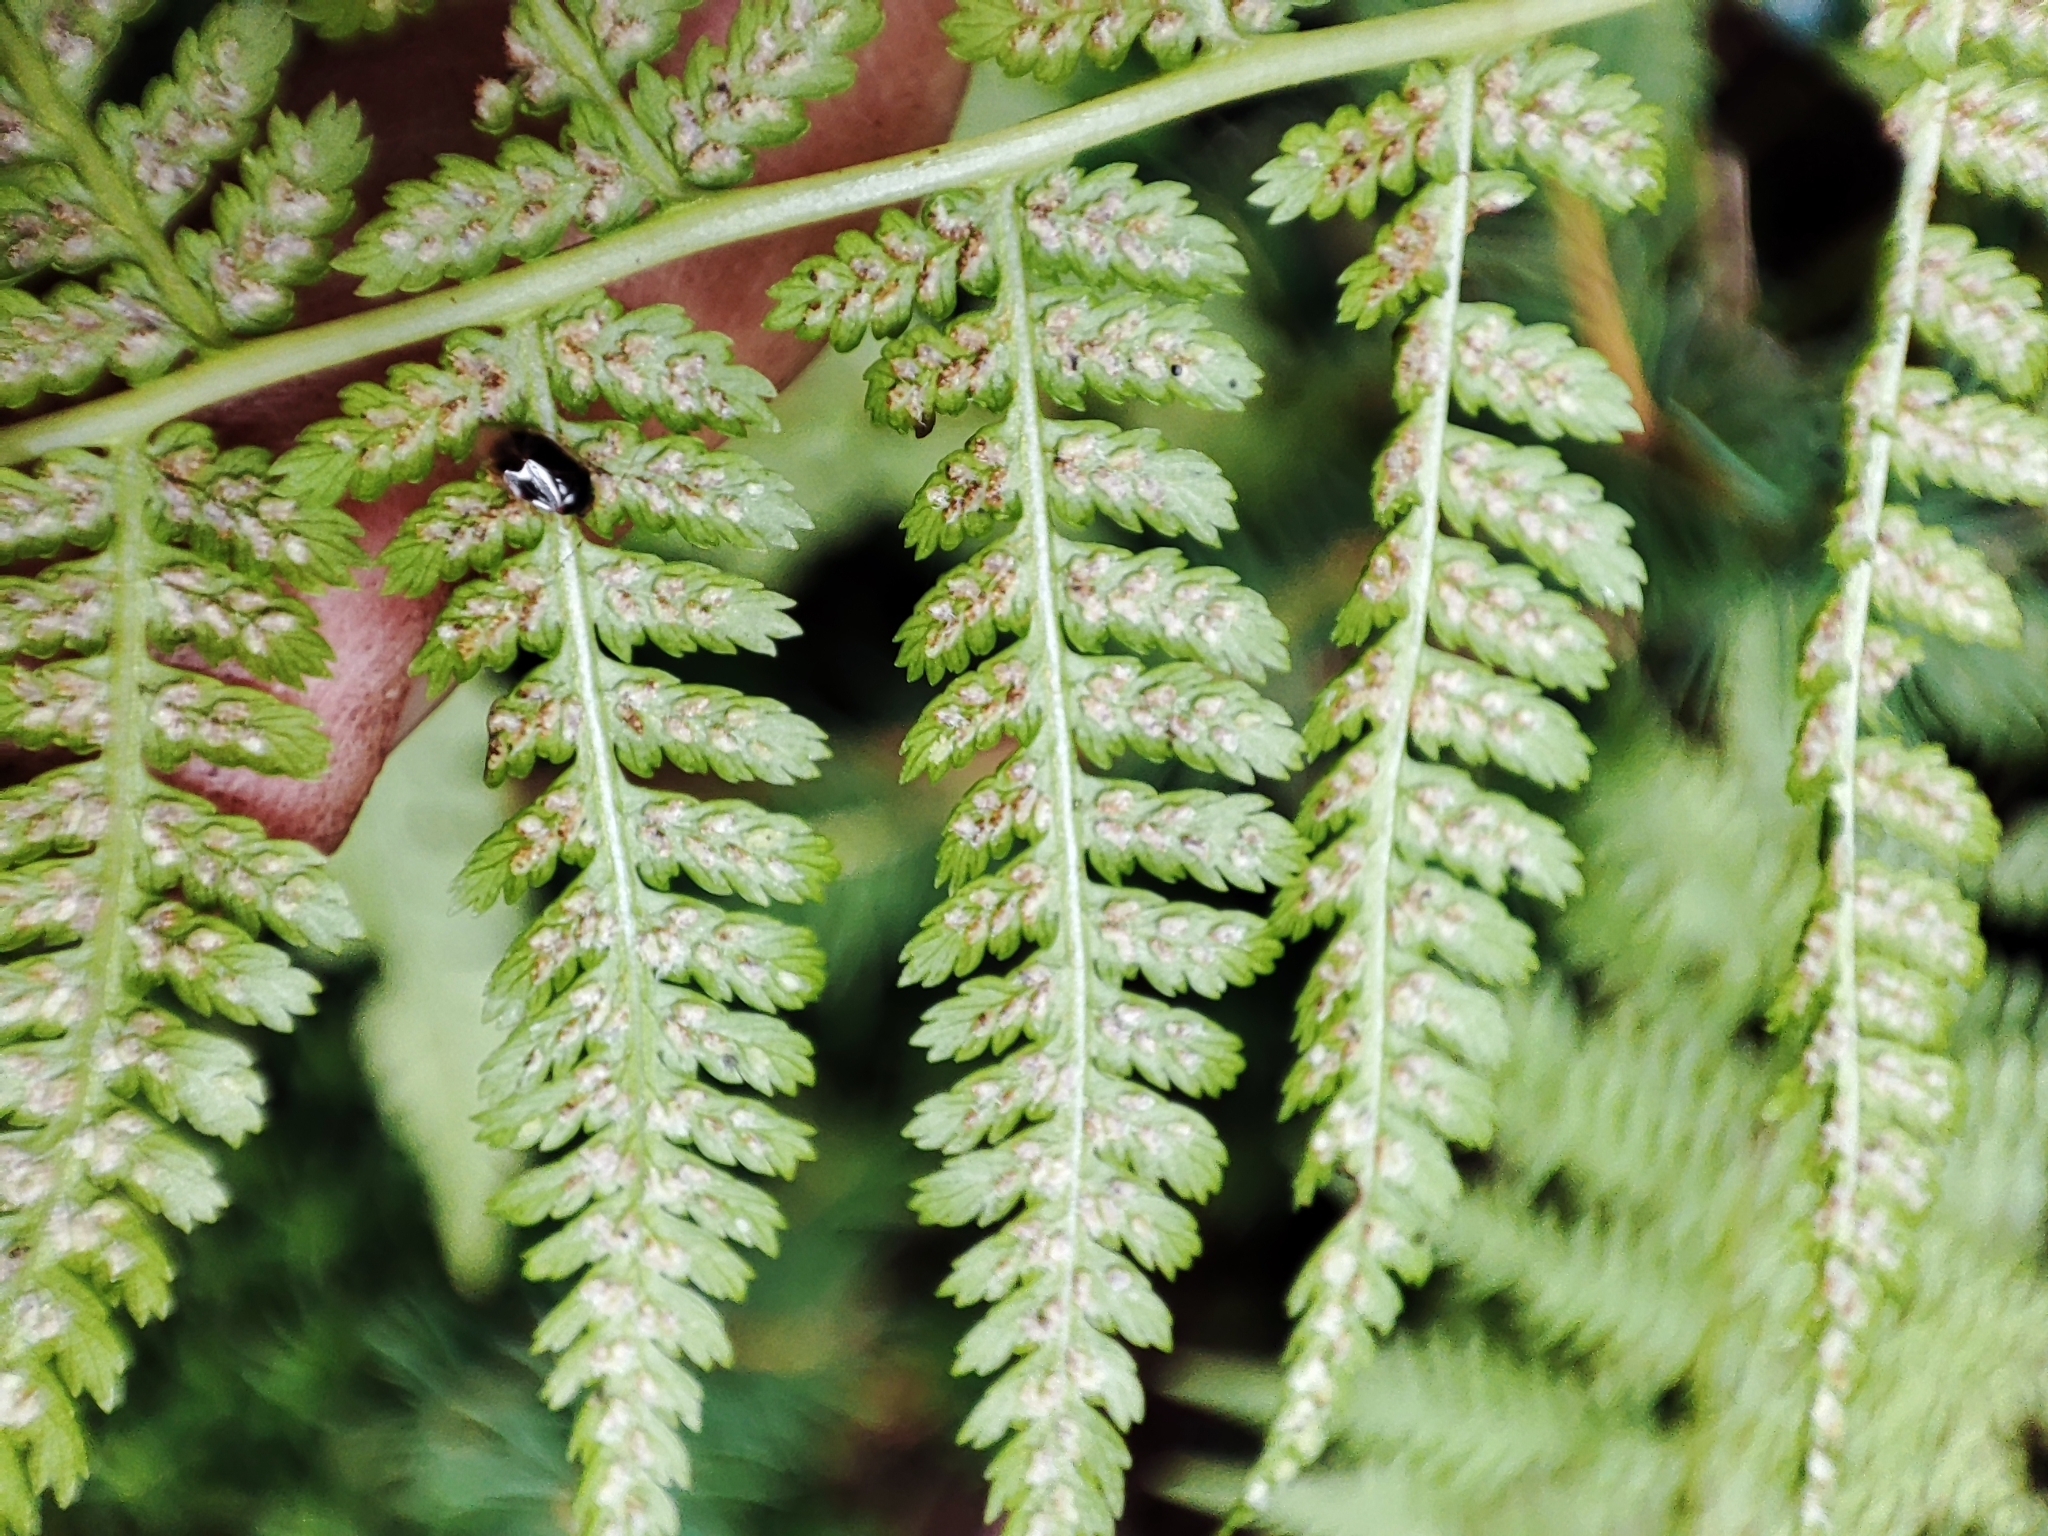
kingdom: Plantae
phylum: Tracheophyta
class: Polypodiopsida
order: Polypodiales
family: Athyriaceae
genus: Athyrium
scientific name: Athyrium filix-femina
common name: Lady fern
